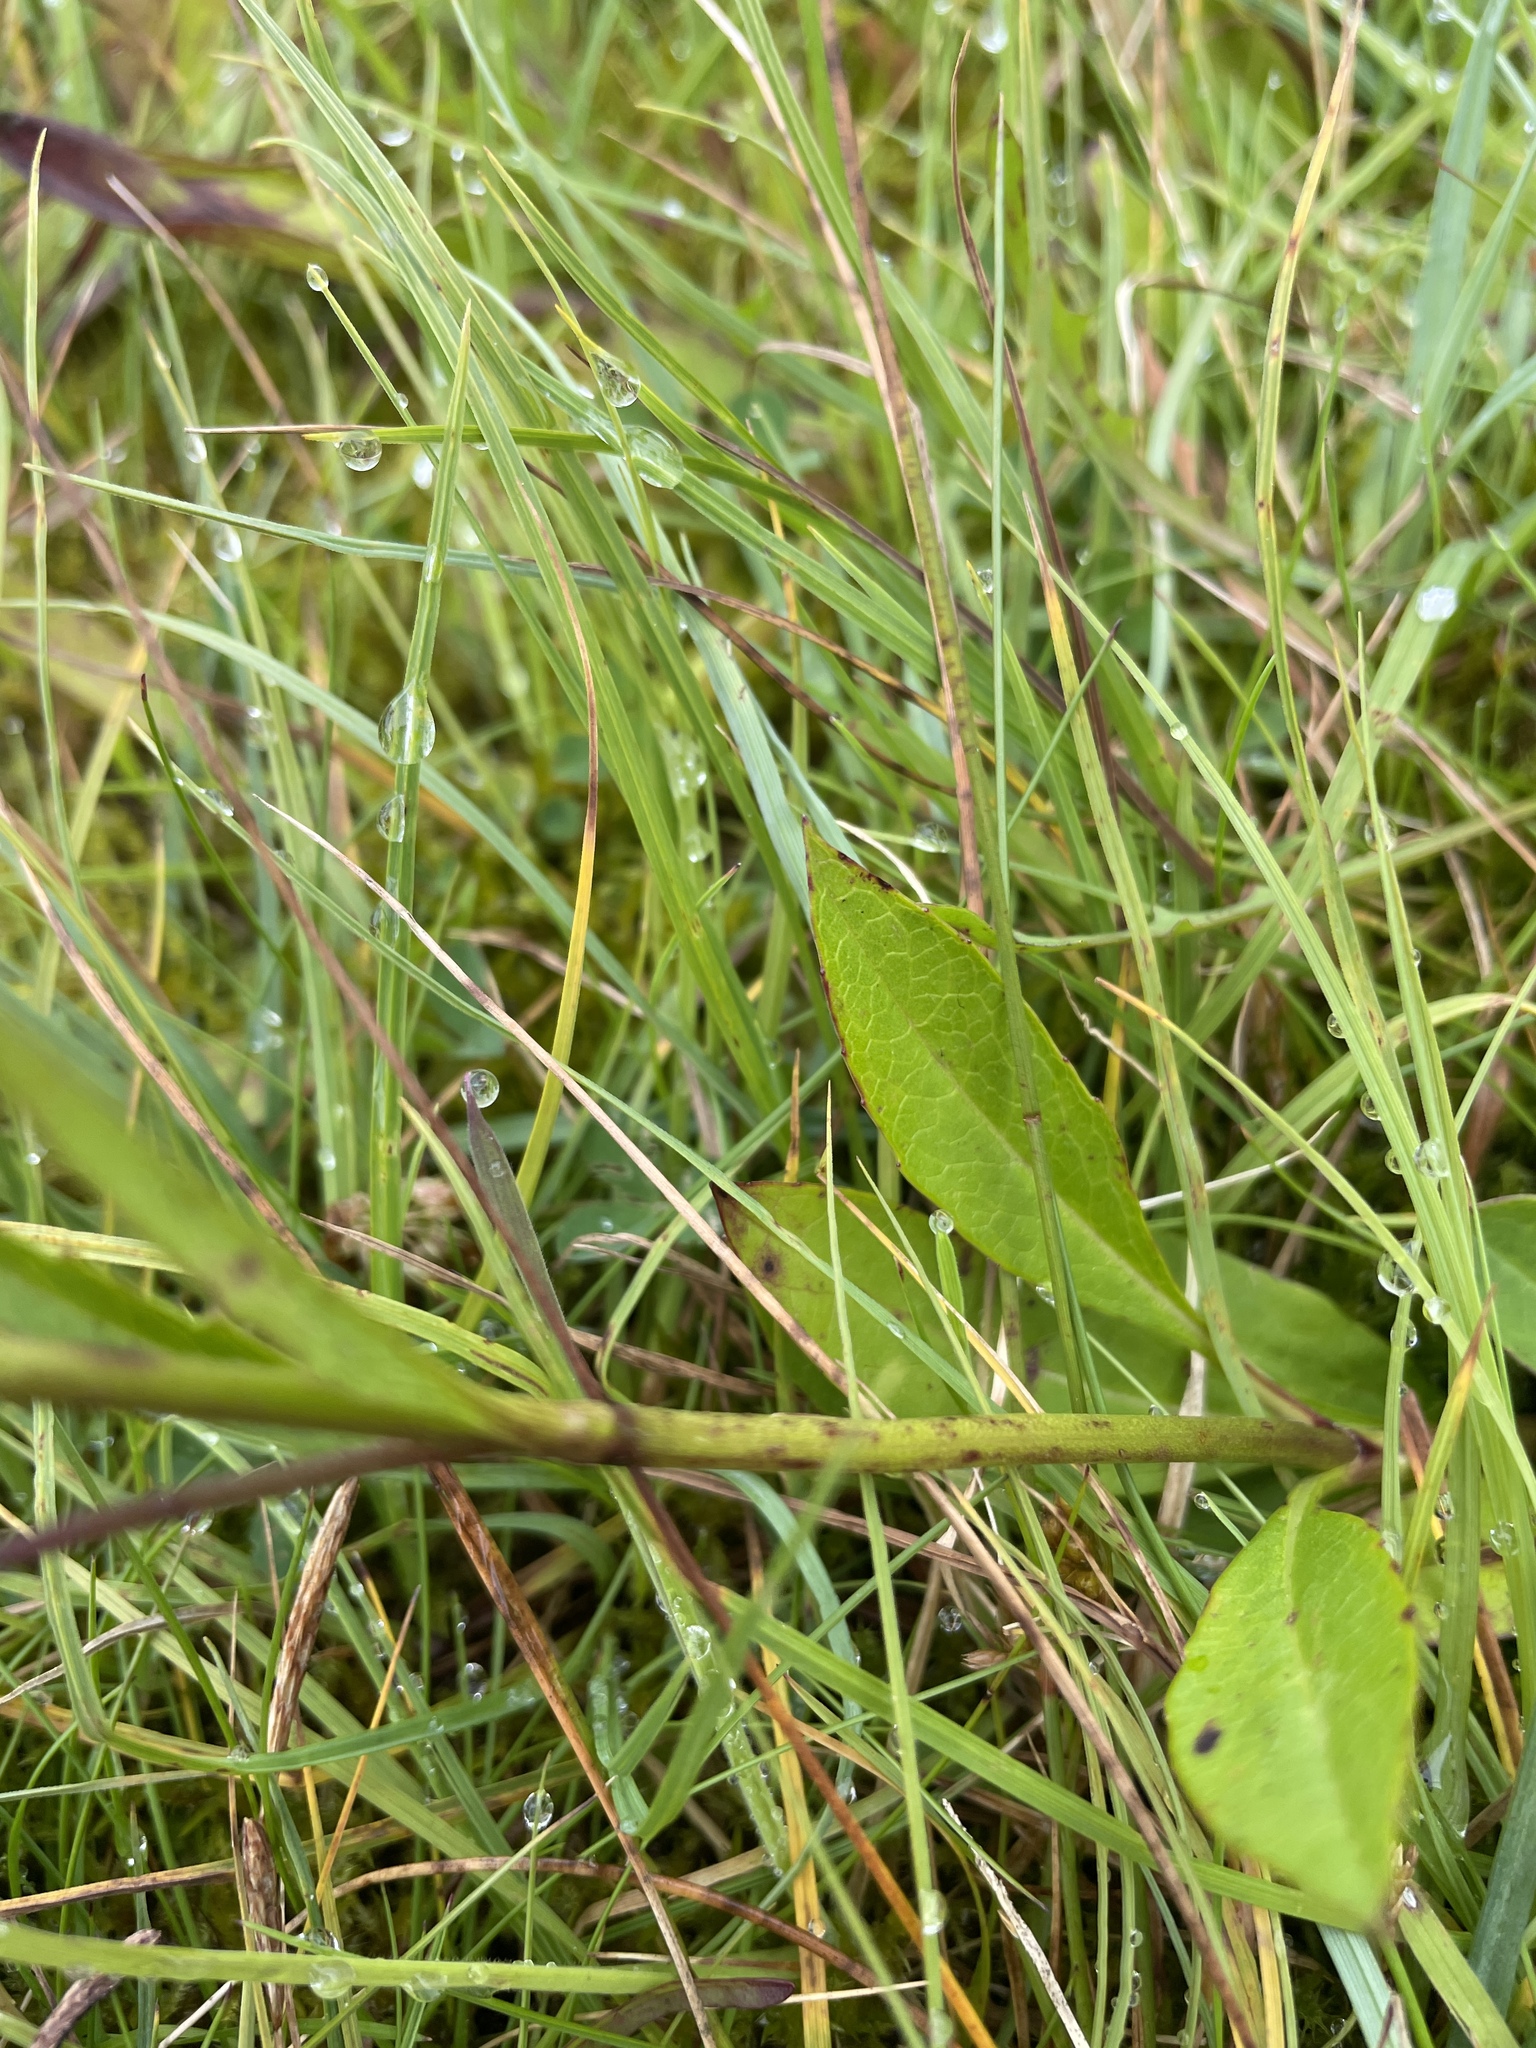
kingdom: Plantae
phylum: Tracheophyta
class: Magnoliopsida
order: Dipsacales
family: Caprifoliaceae
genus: Succisa
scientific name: Succisa pratensis
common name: Devil's-bit
